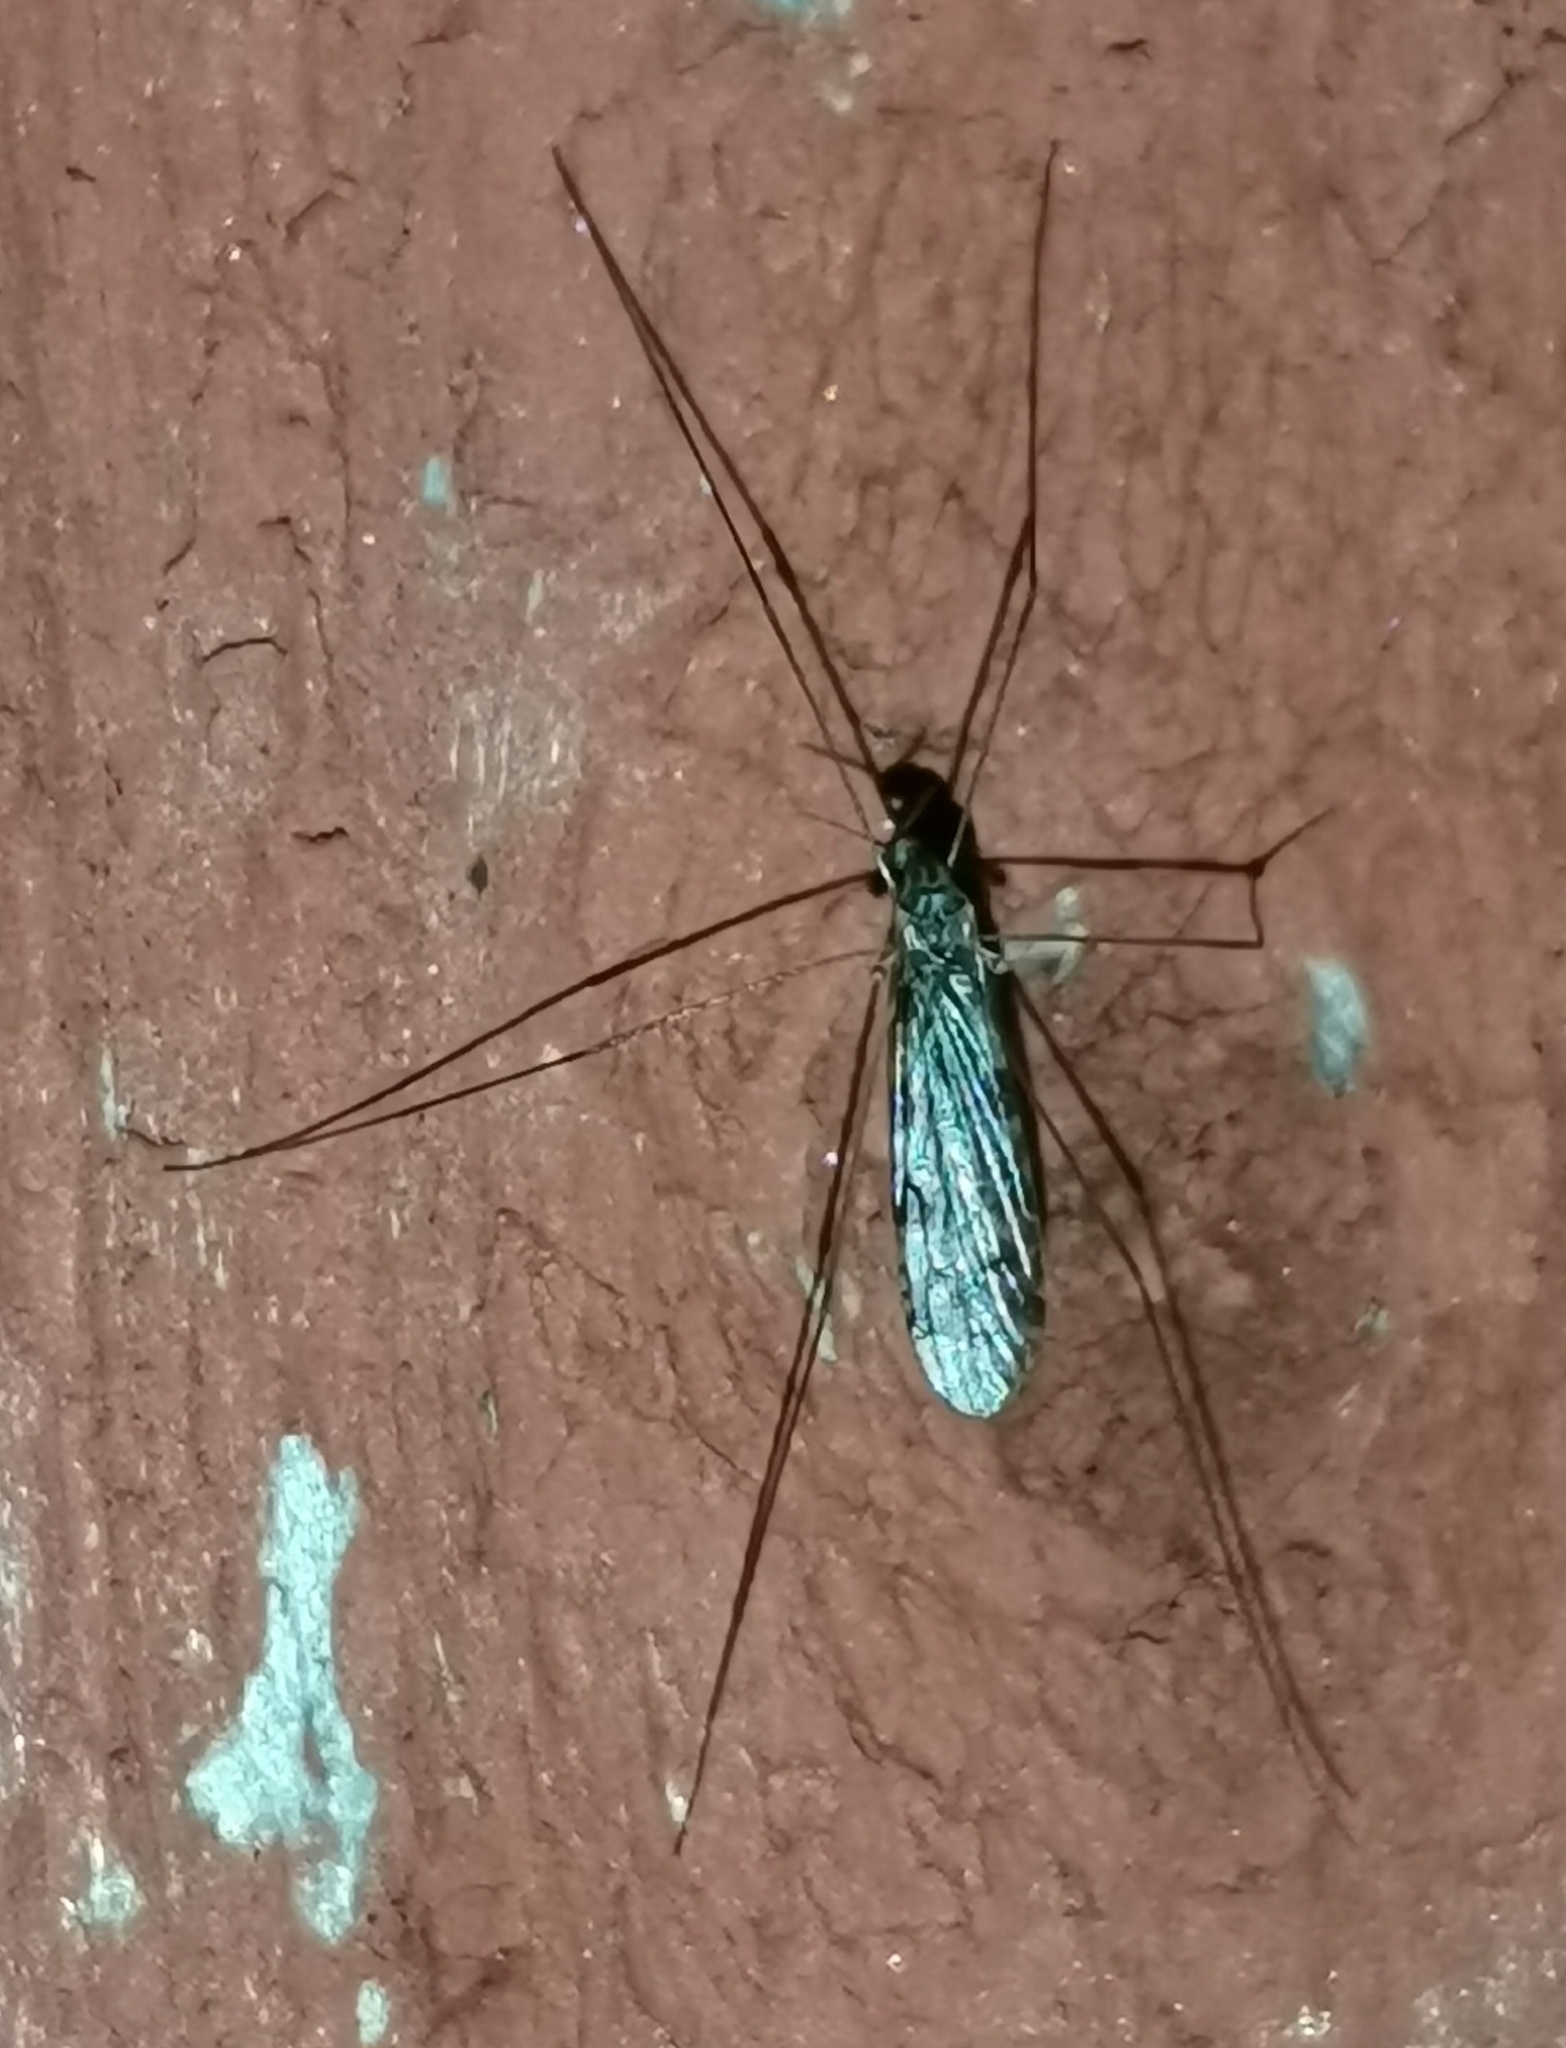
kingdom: Animalia
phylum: Arthropoda
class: Insecta
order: Diptera
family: Limoniidae
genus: Discobola
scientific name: Discobola annulata
